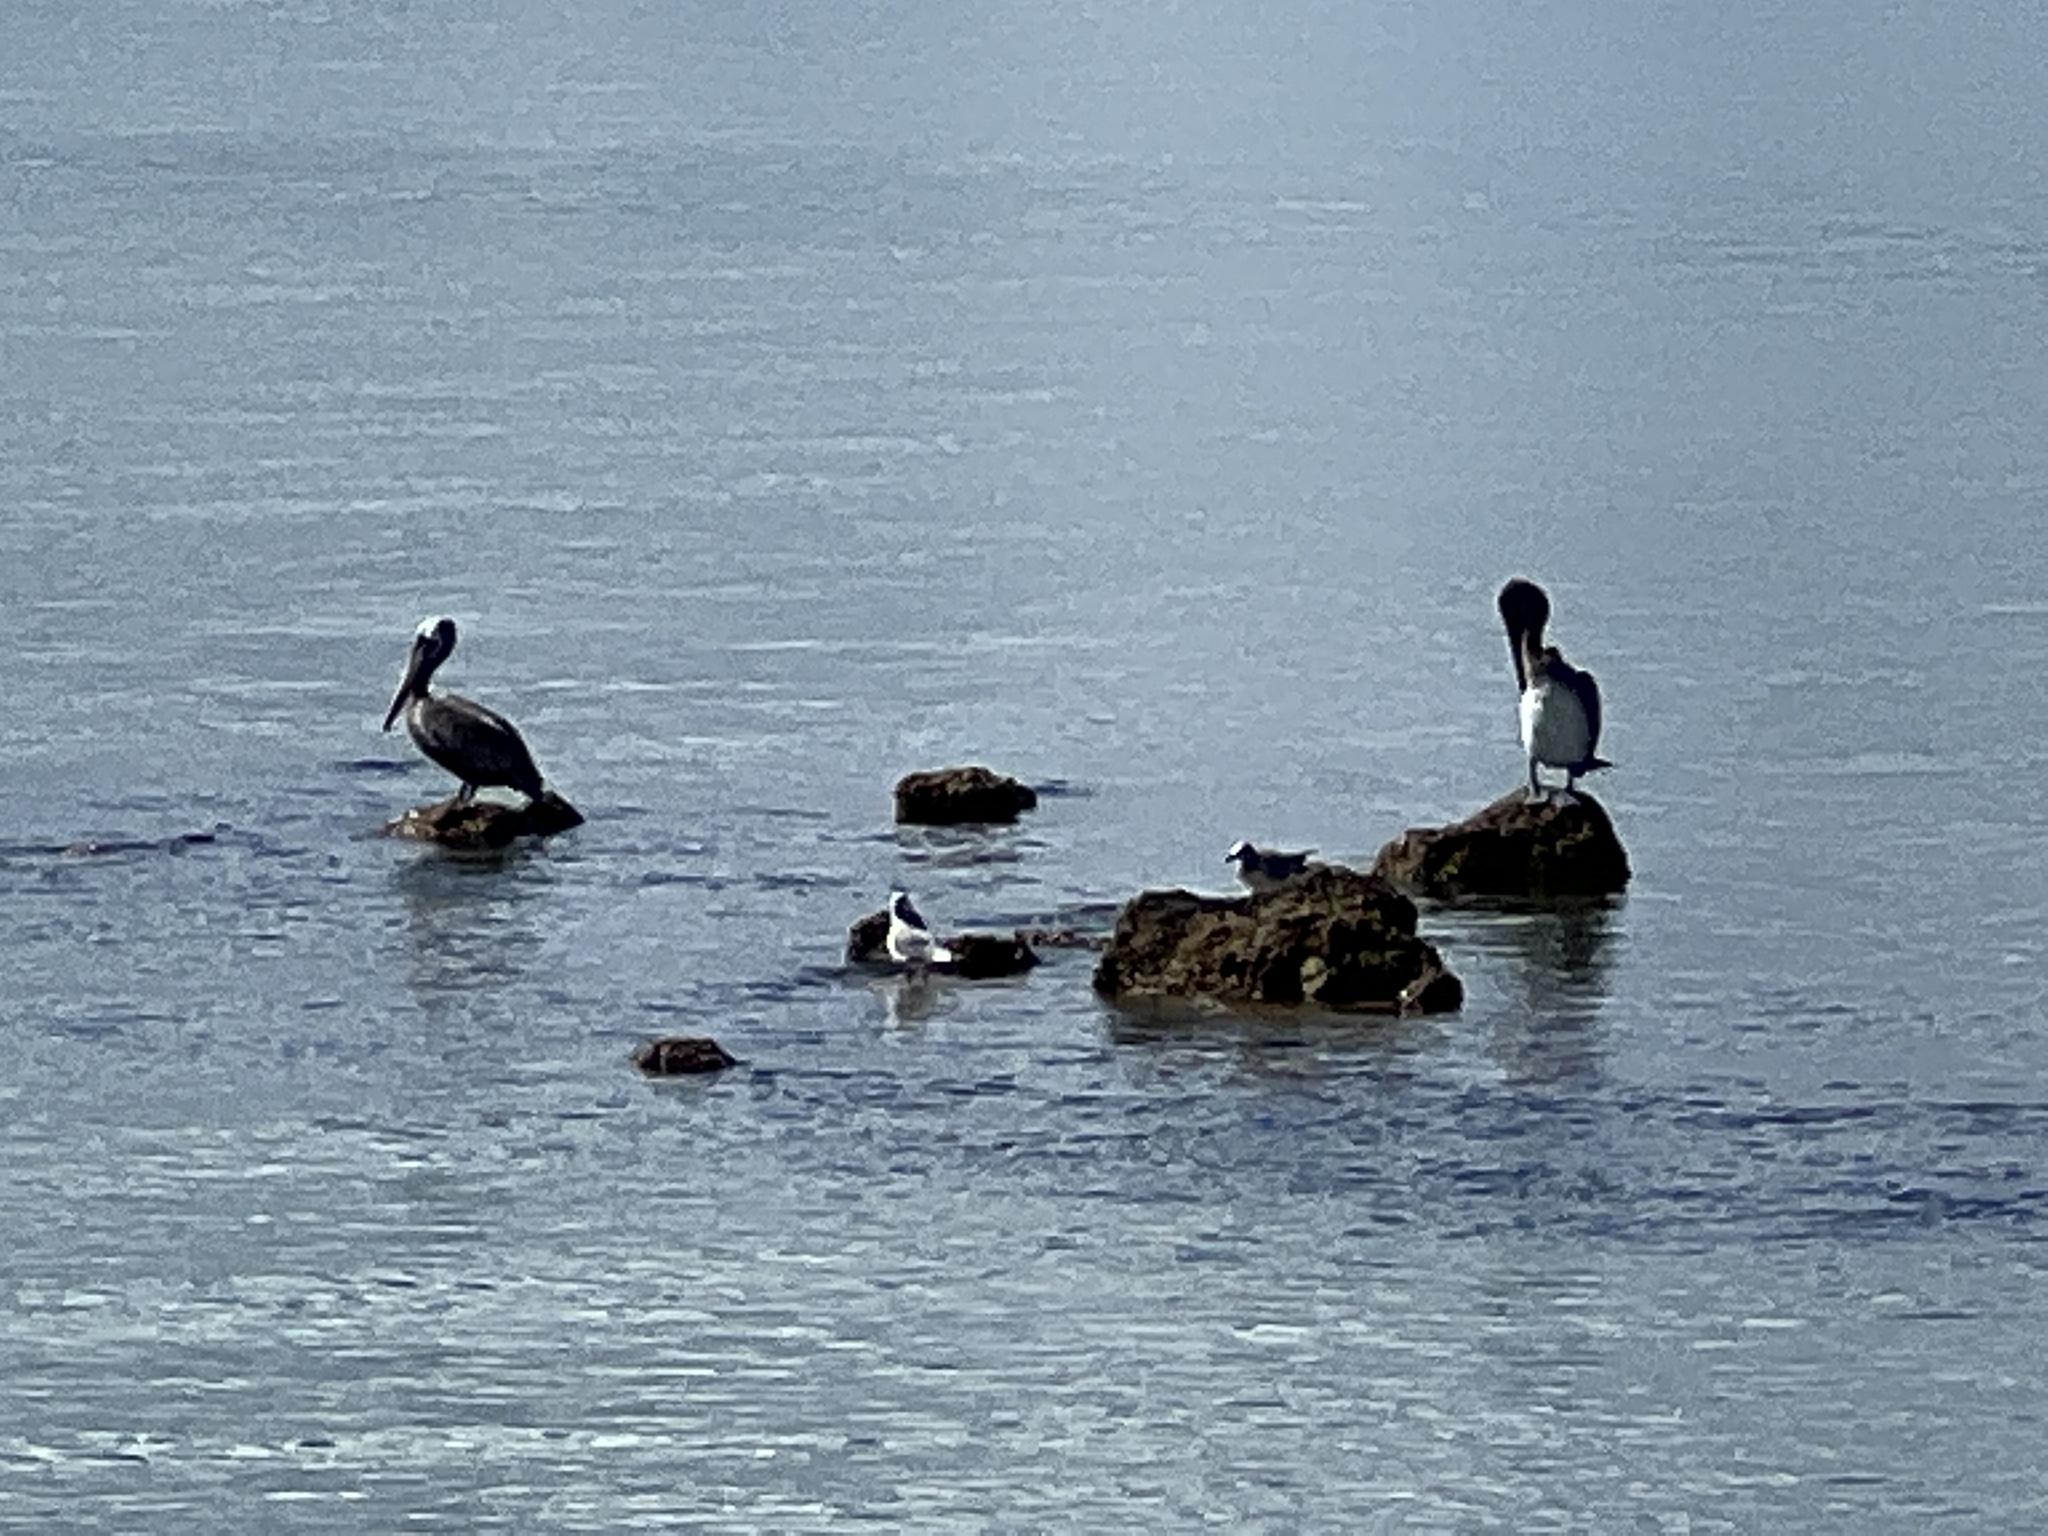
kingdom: Animalia
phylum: Chordata
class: Aves
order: Pelecaniformes
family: Pelecanidae
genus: Pelecanus
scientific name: Pelecanus occidentalis
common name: Brown pelican
